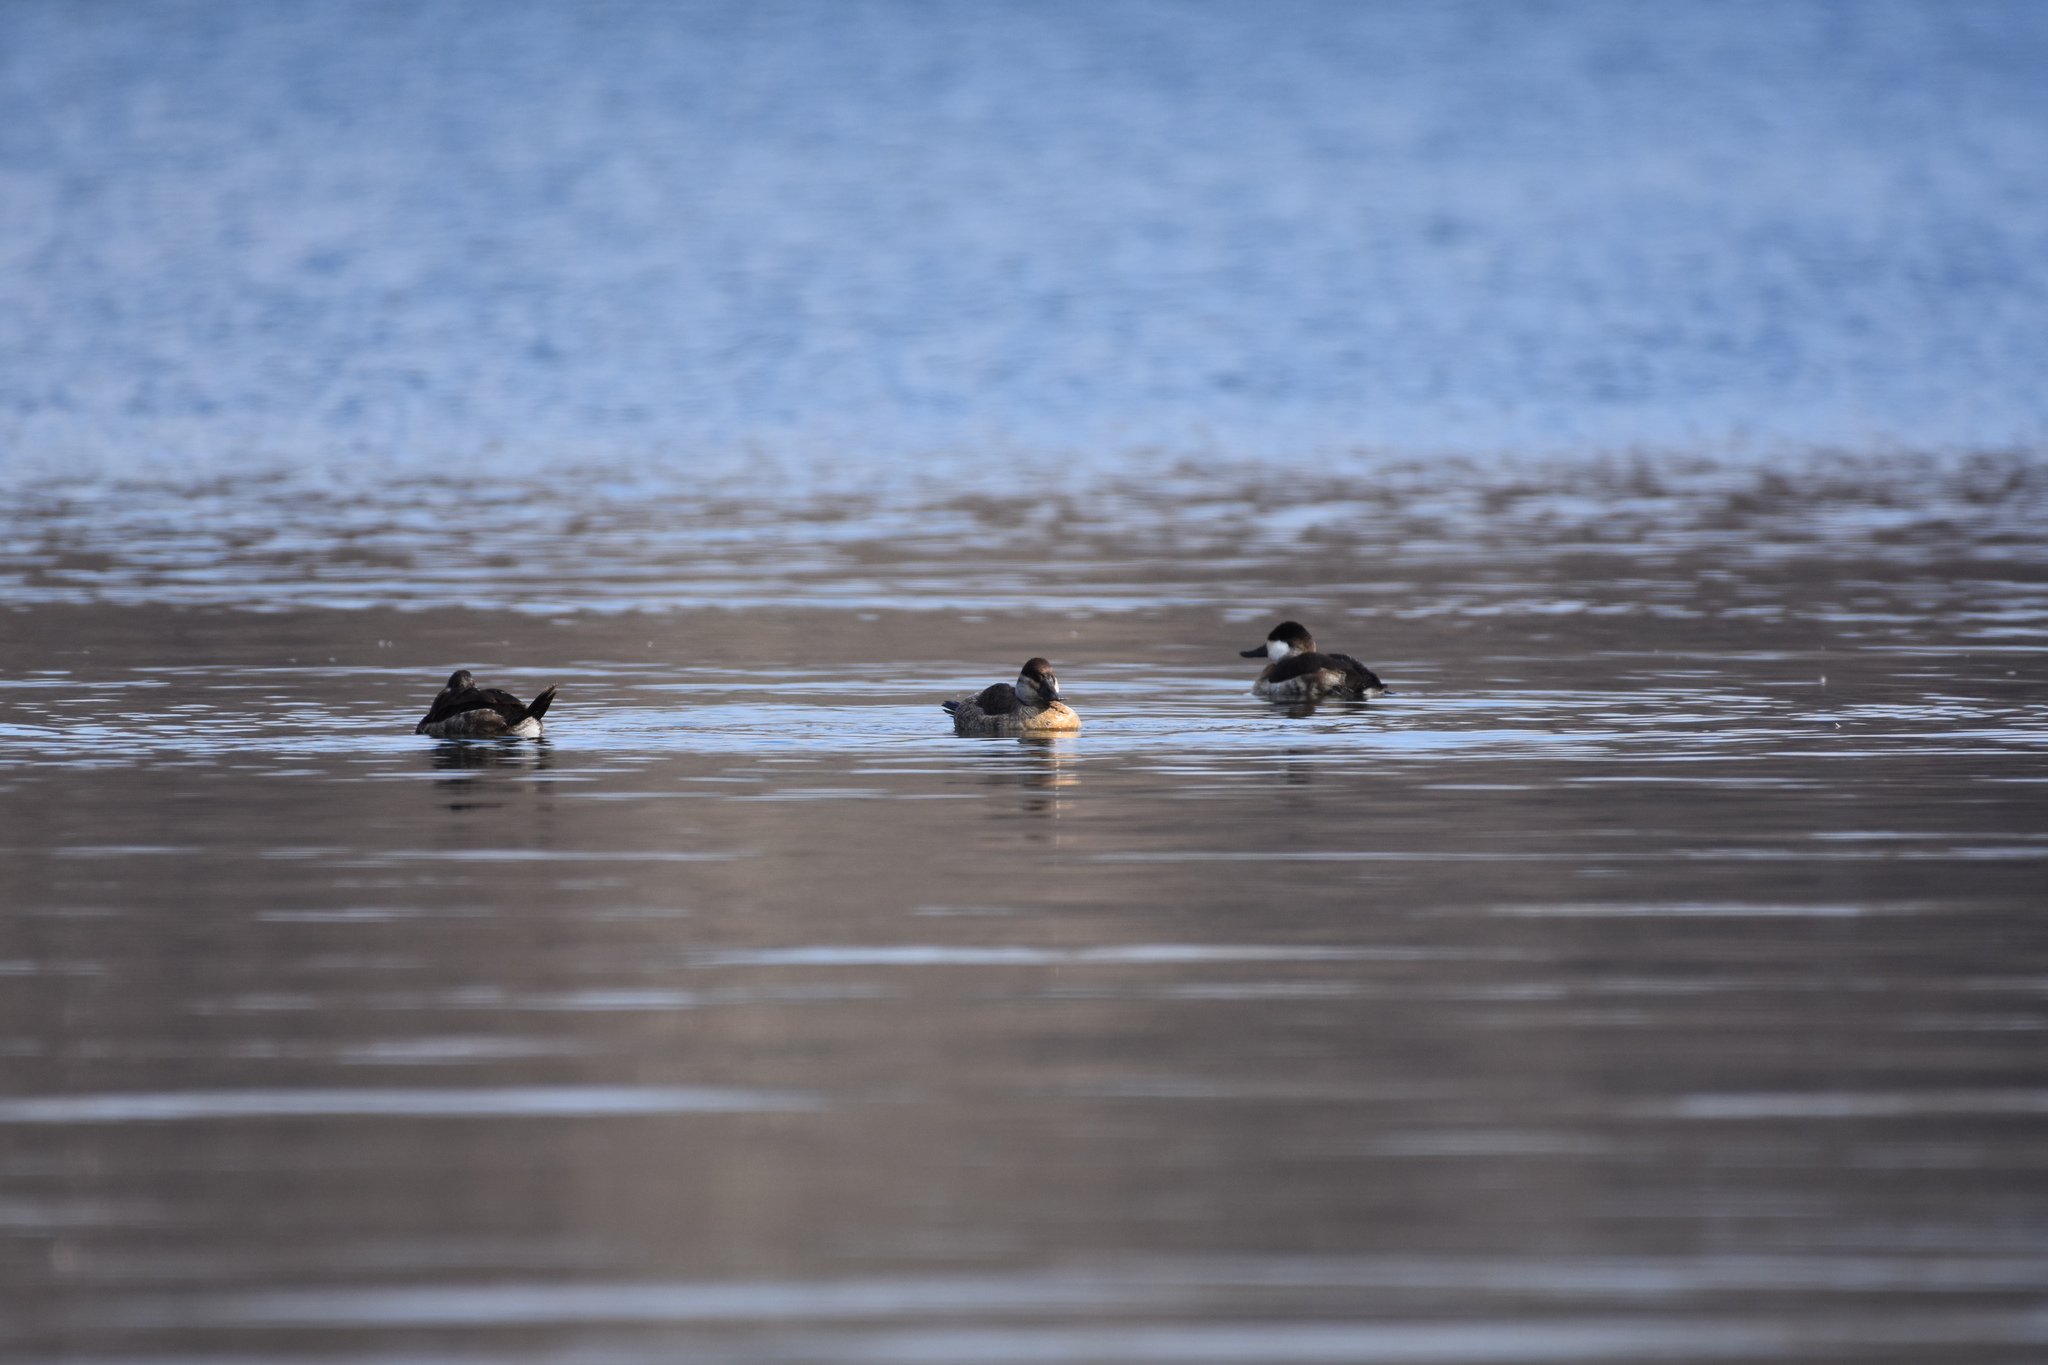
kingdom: Animalia
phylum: Chordata
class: Aves
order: Anseriformes
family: Anatidae
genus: Oxyura
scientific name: Oxyura jamaicensis
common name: Ruddy duck
